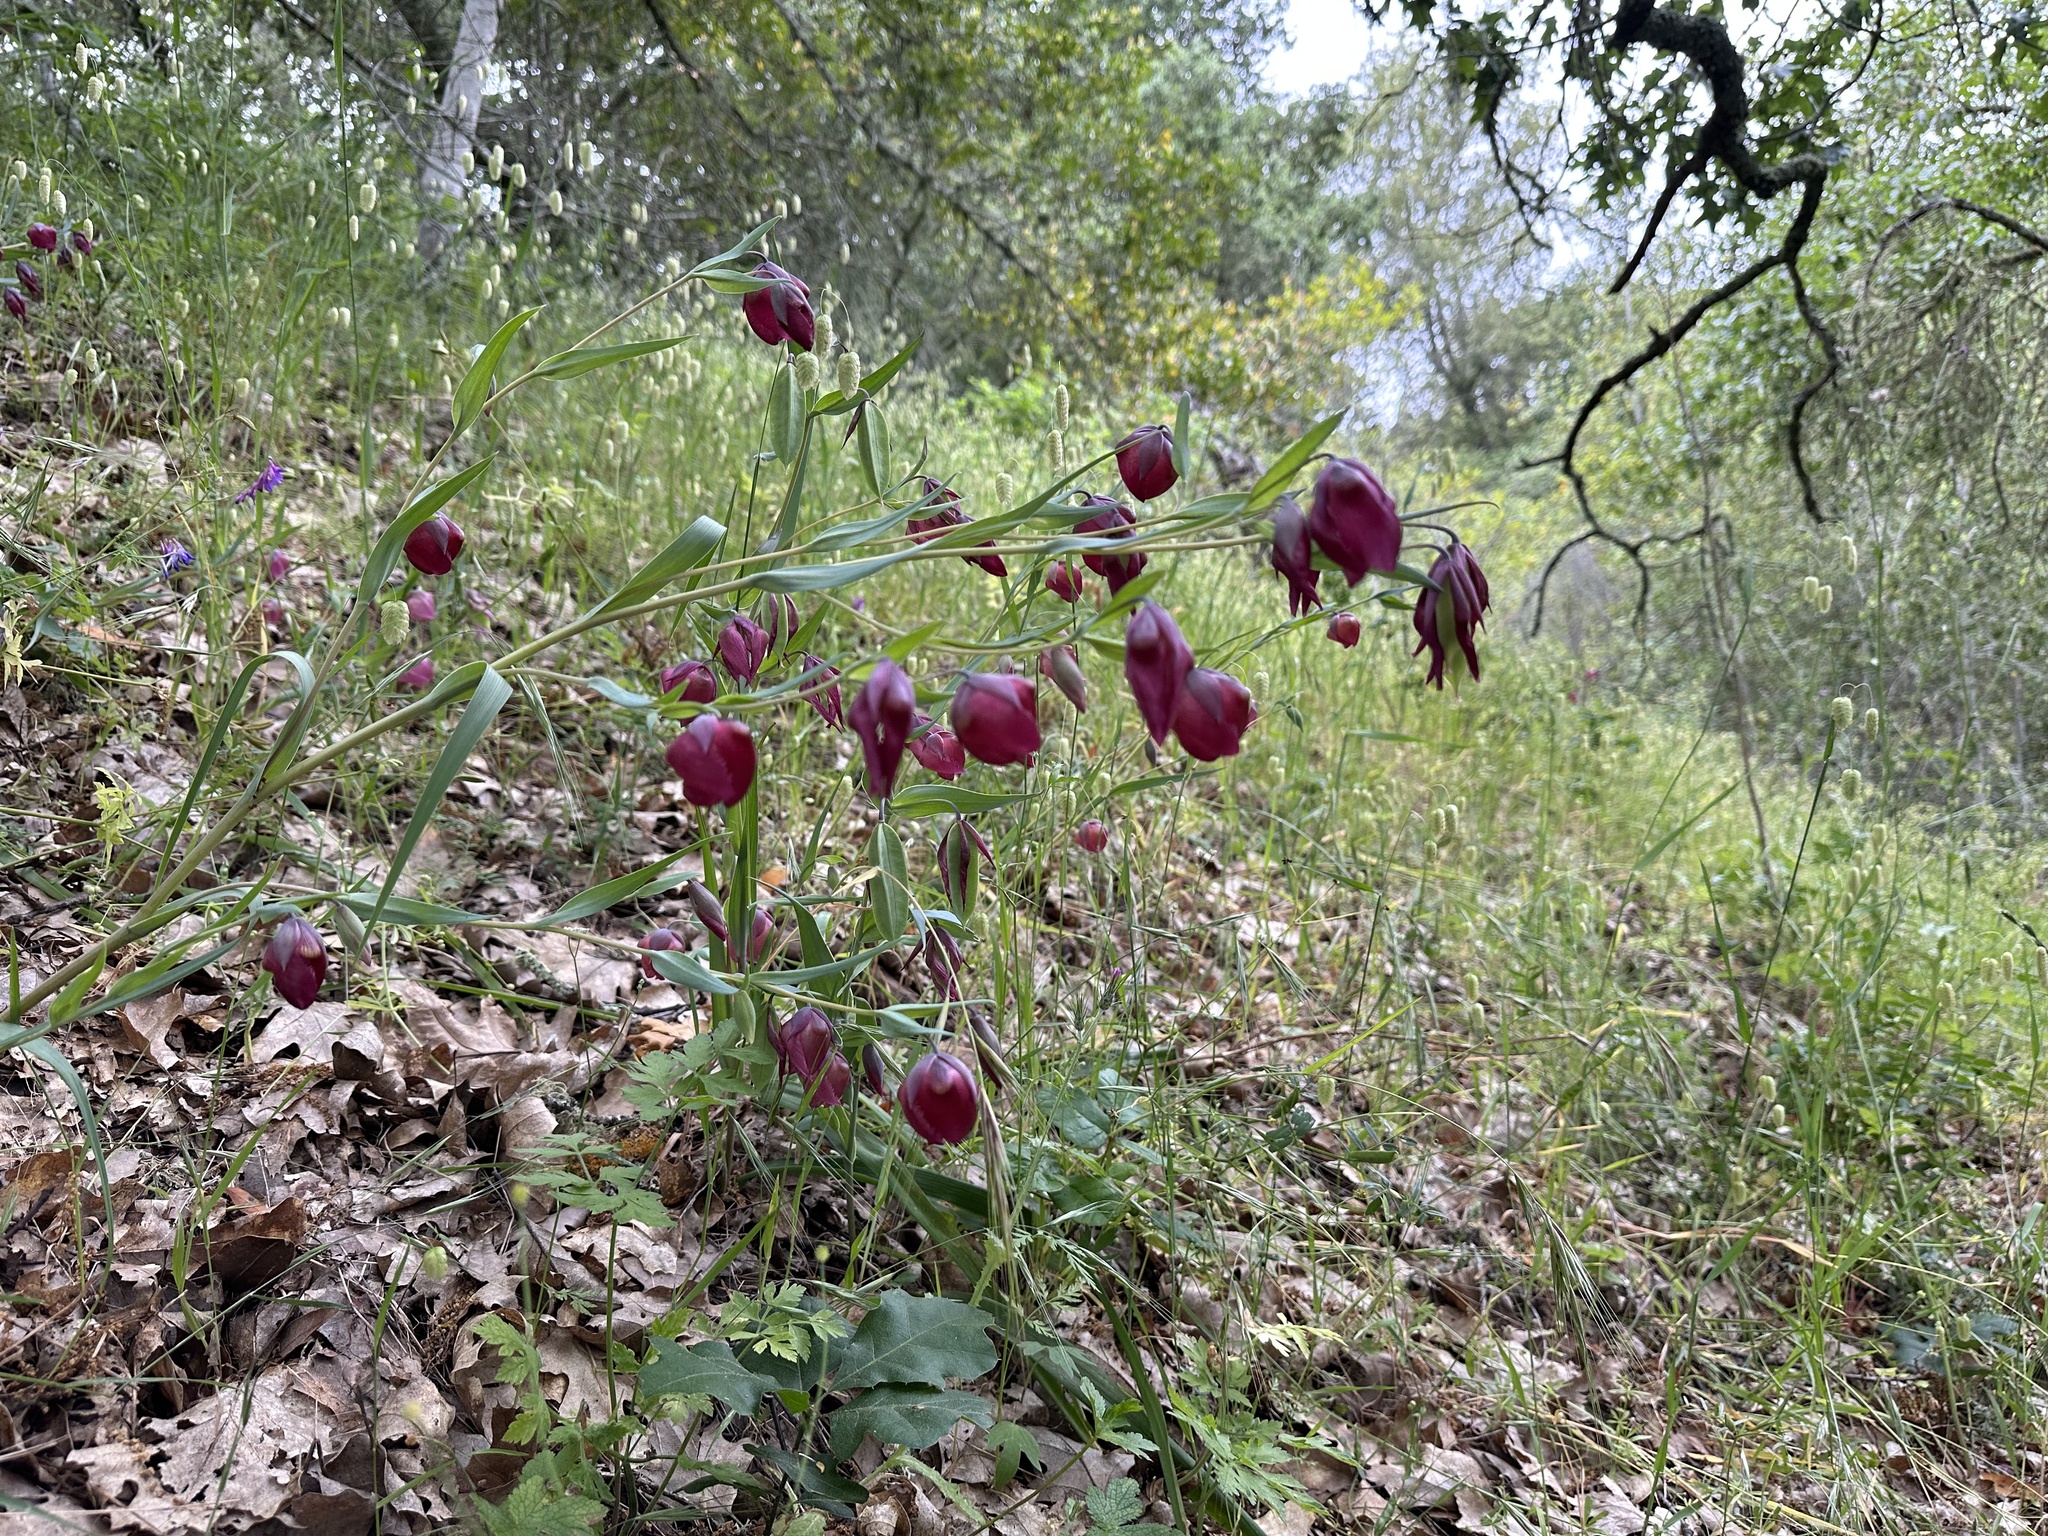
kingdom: Plantae
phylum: Tracheophyta
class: Liliopsida
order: Liliales
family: Liliaceae
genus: Calochortus
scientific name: Calochortus albus
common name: Fairy-lantern
